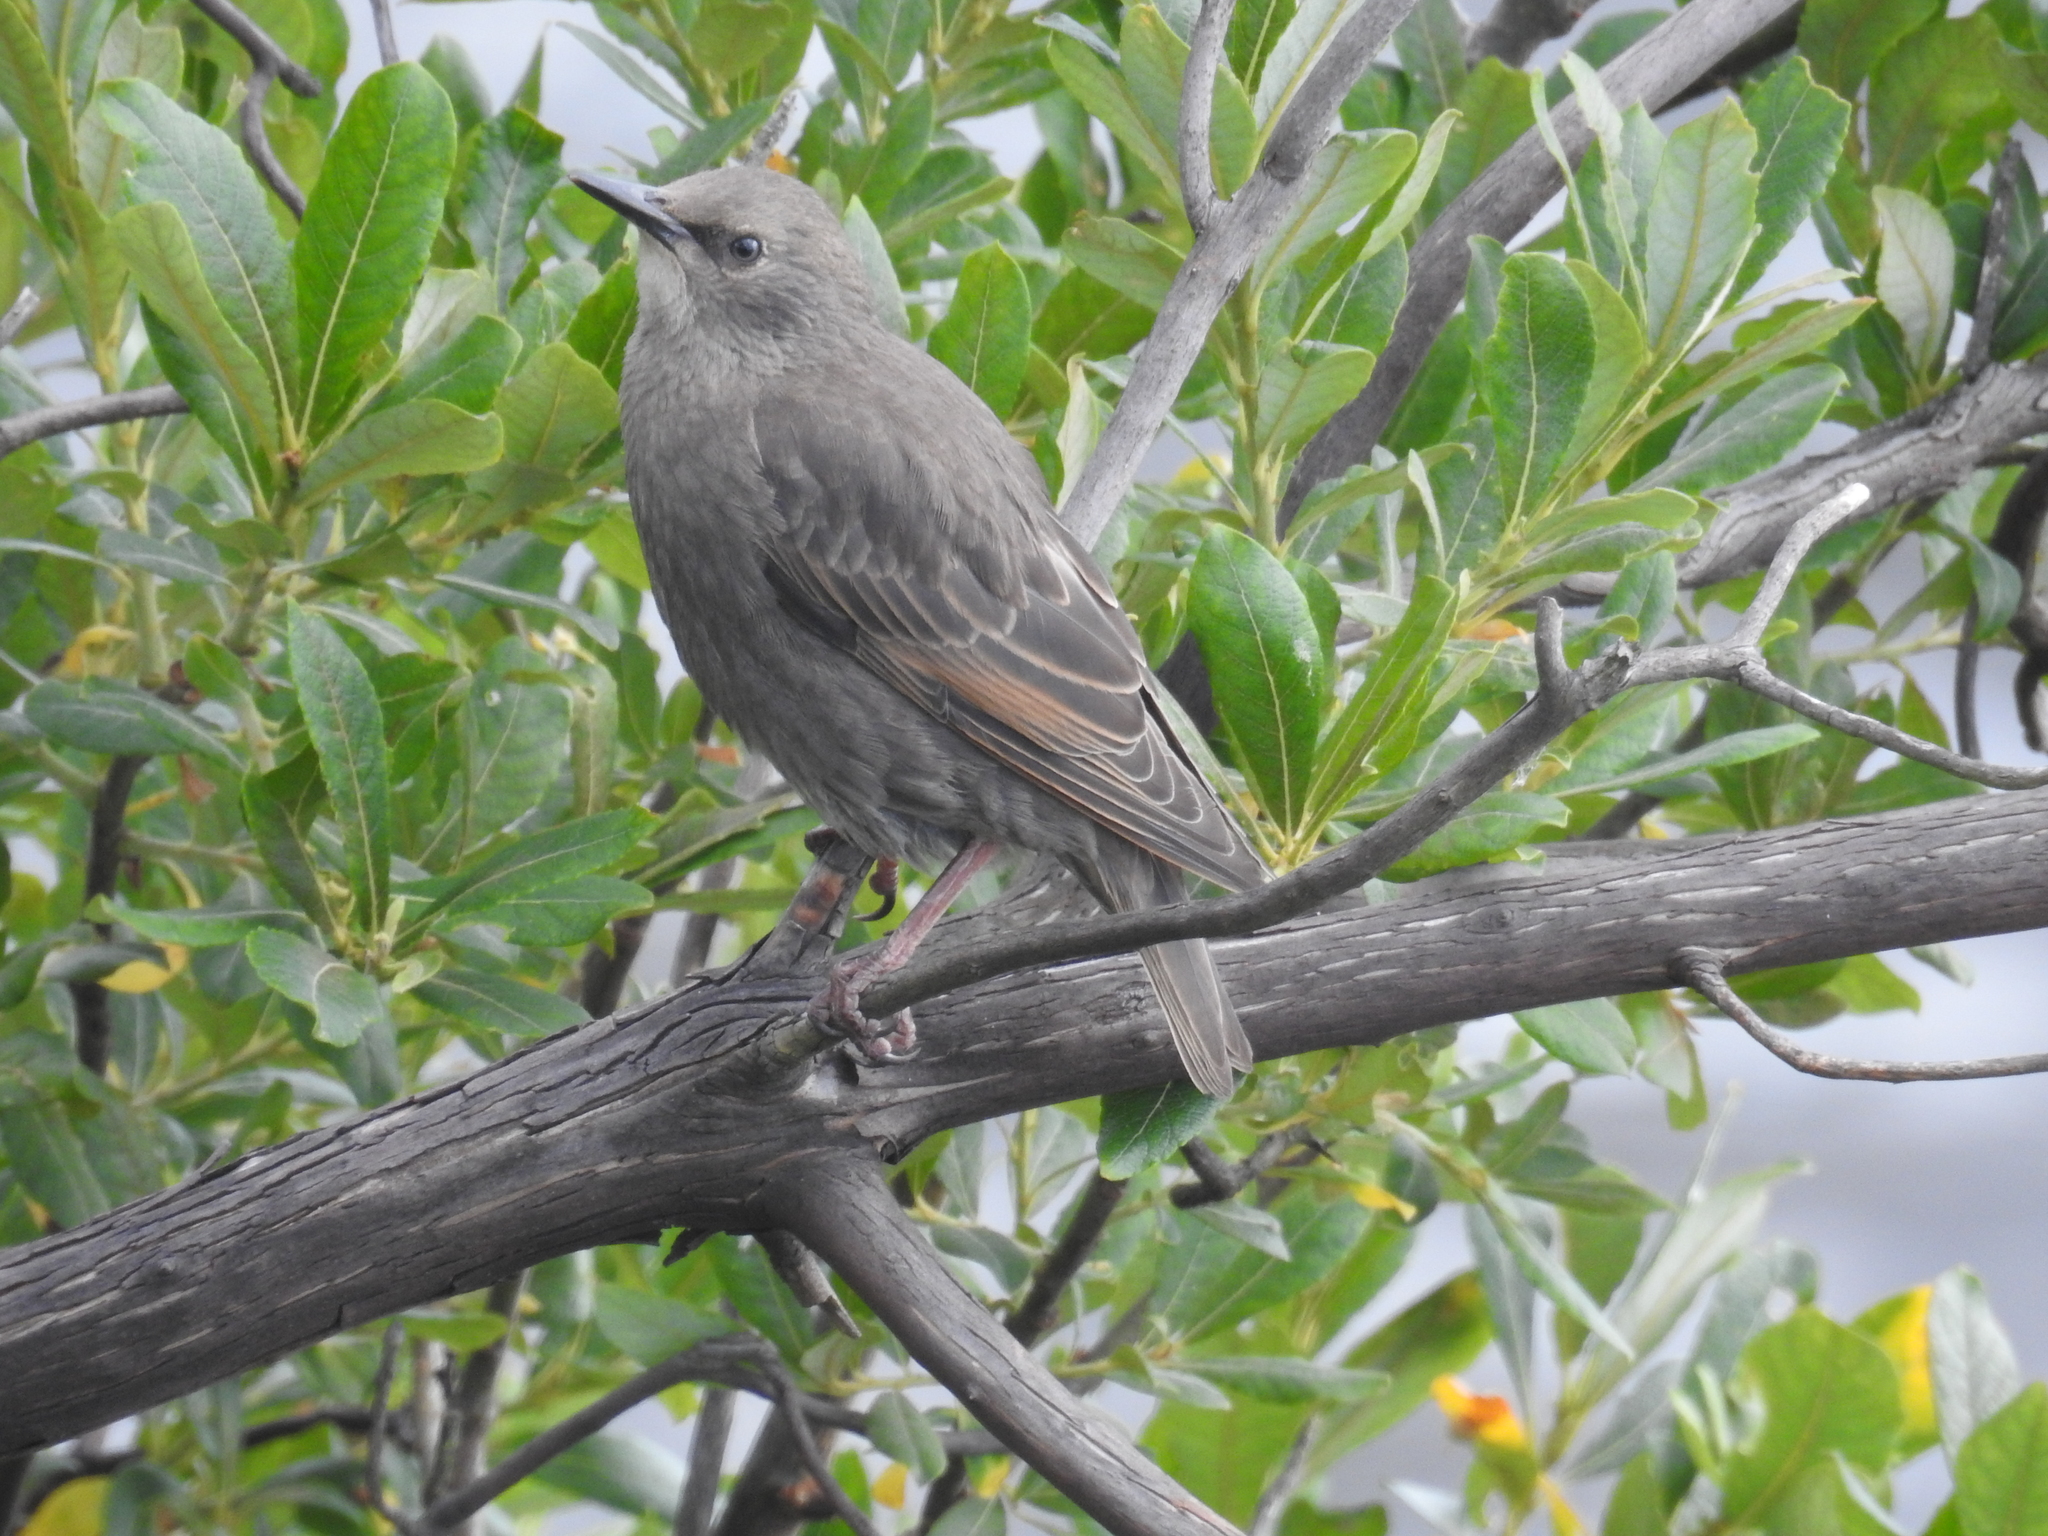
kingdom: Animalia
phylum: Chordata
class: Aves
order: Passeriformes
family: Sturnidae
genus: Sturnus
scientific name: Sturnus vulgaris
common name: Common starling
